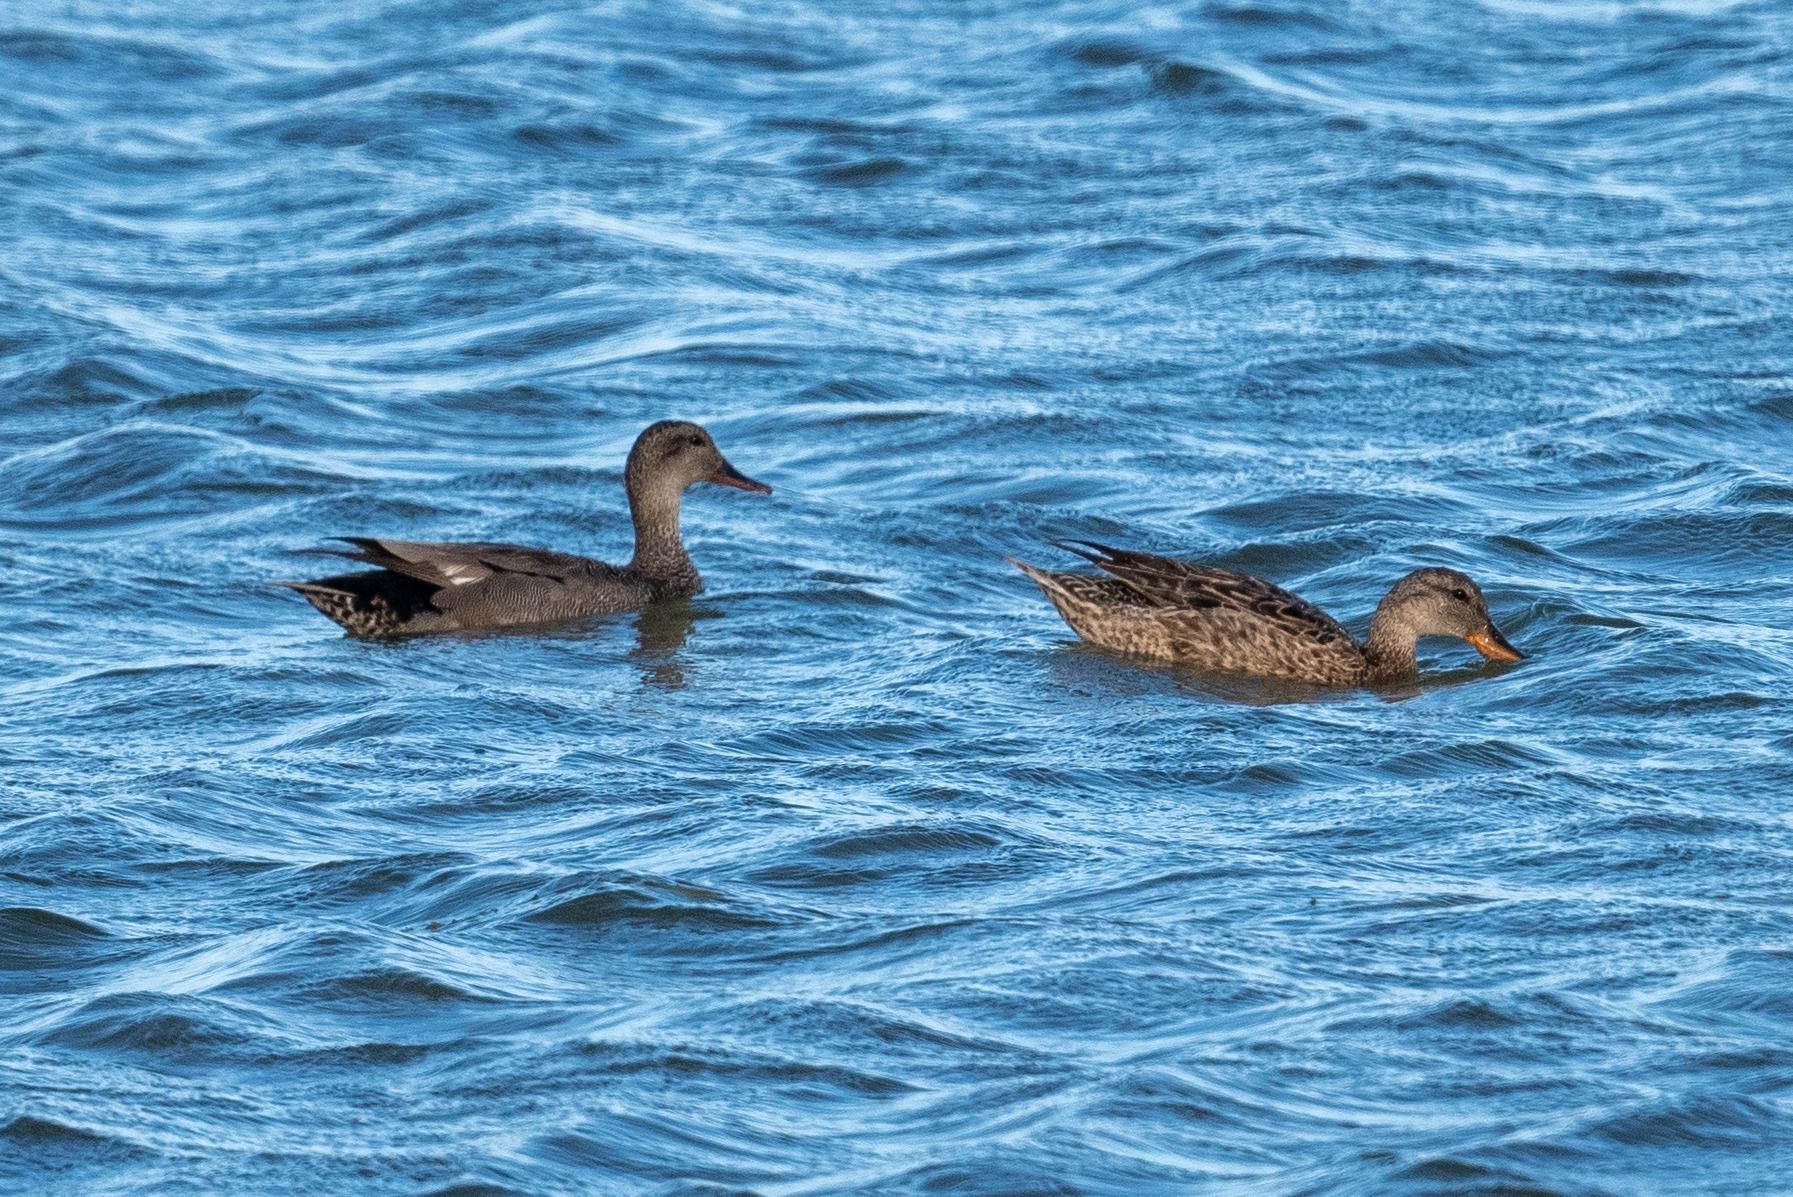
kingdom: Animalia
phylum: Chordata
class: Aves
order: Anseriformes
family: Anatidae
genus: Mareca
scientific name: Mareca strepera
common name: Gadwall
